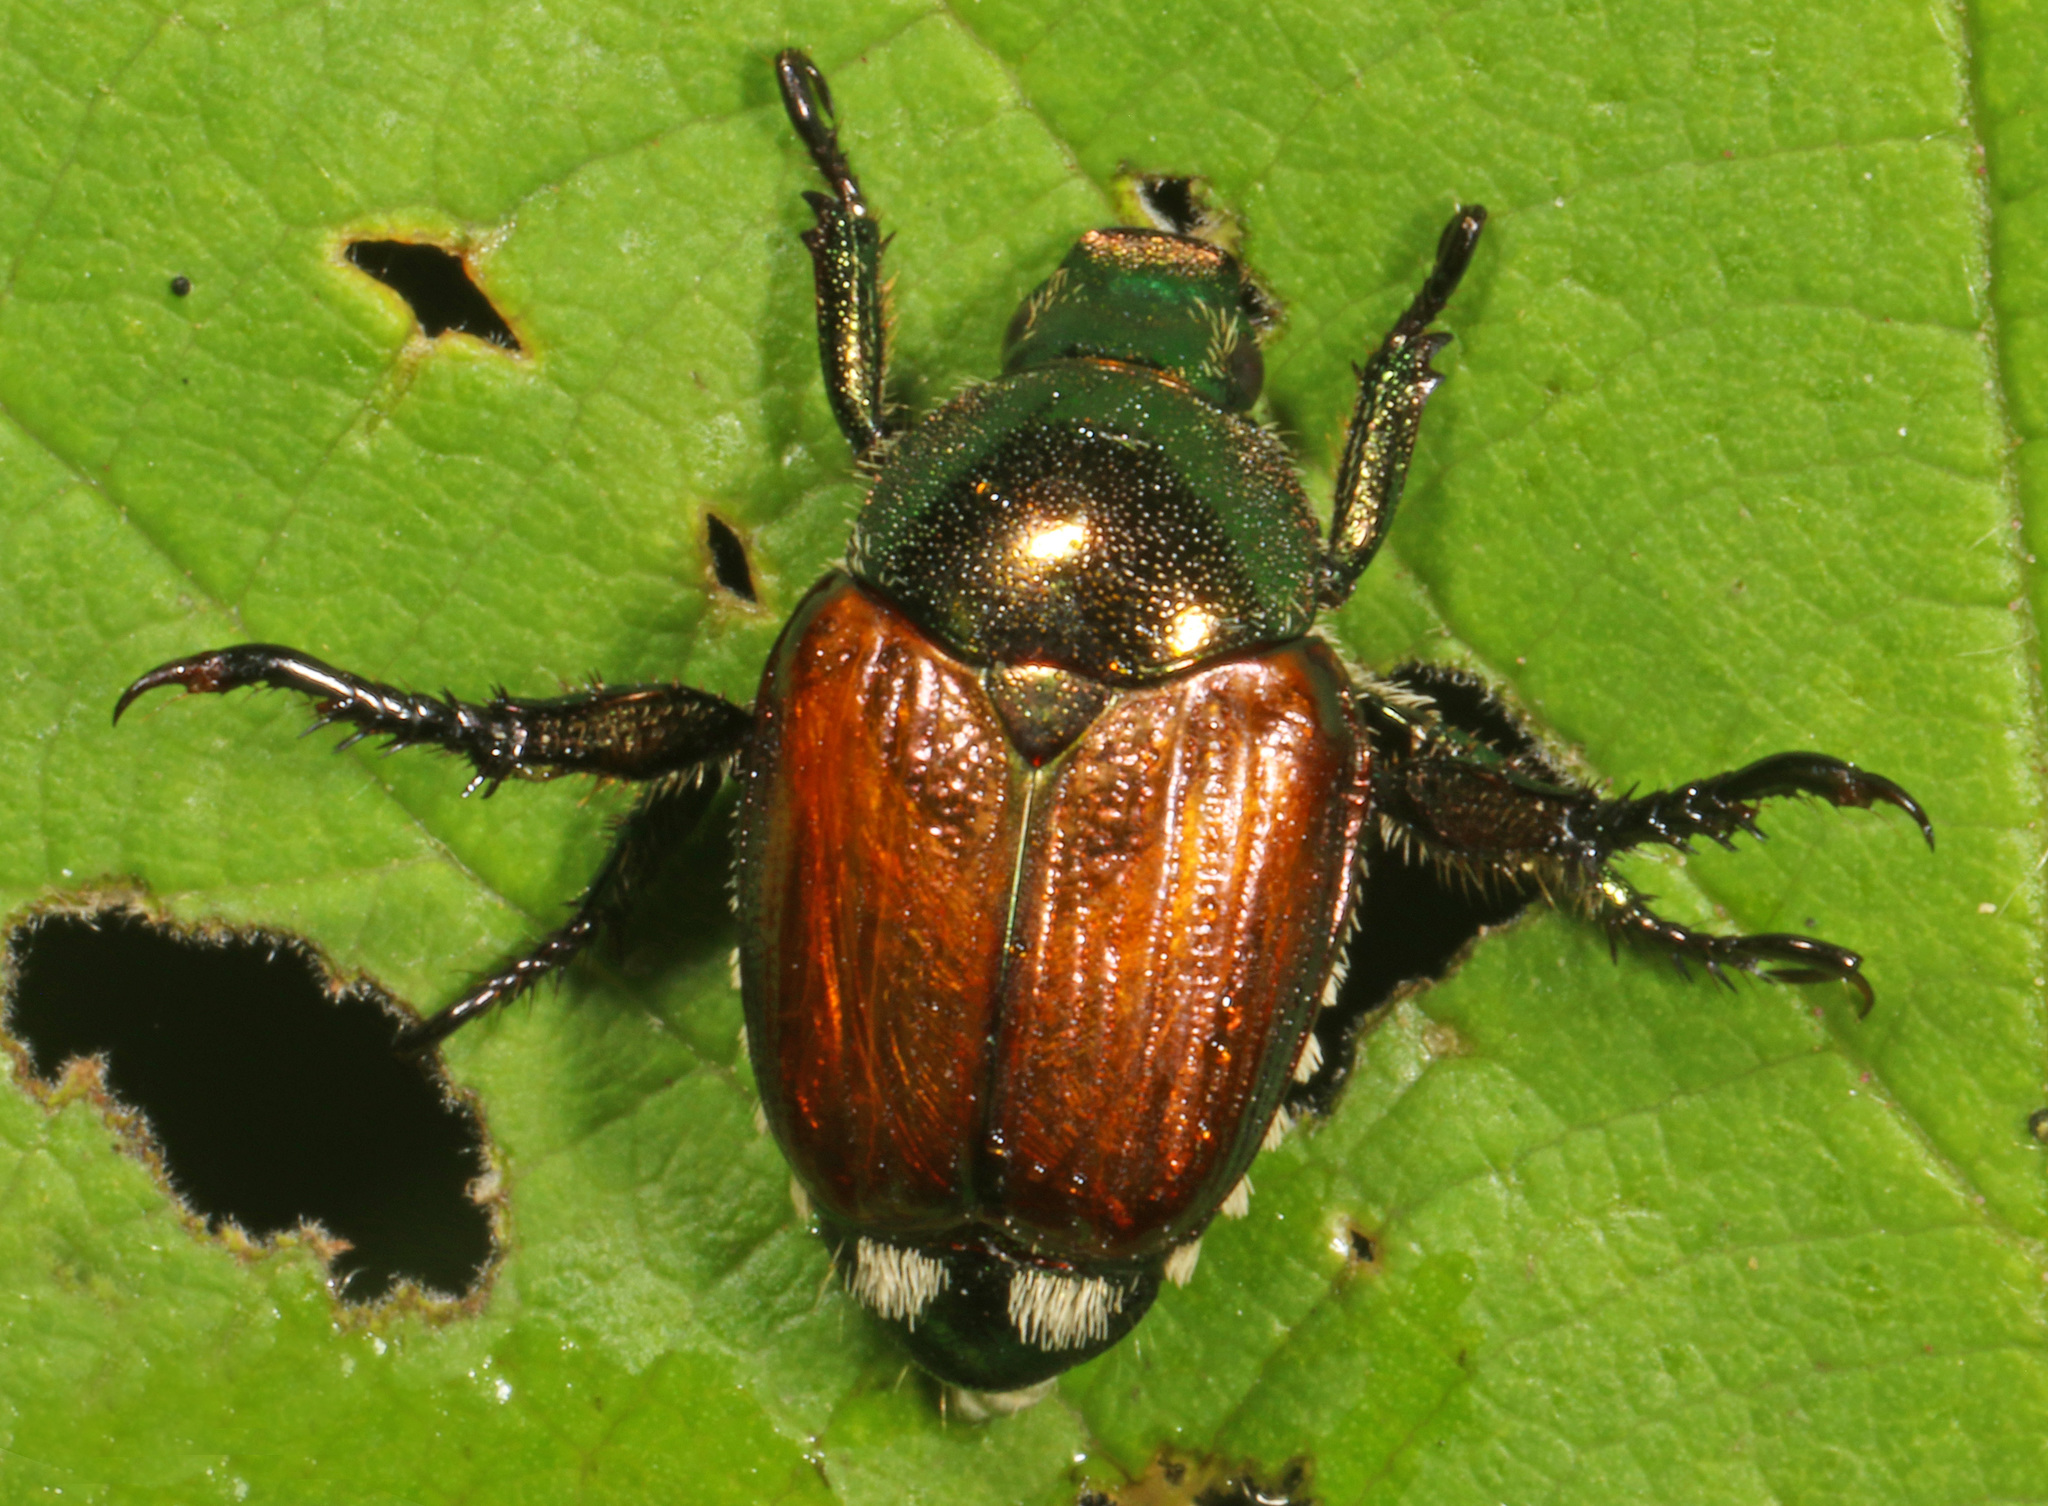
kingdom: Animalia
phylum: Arthropoda
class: Insecta
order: Coleoptera
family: Scarabaeidae
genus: Popillia
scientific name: Popillia japonica
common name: Japanese beetle
